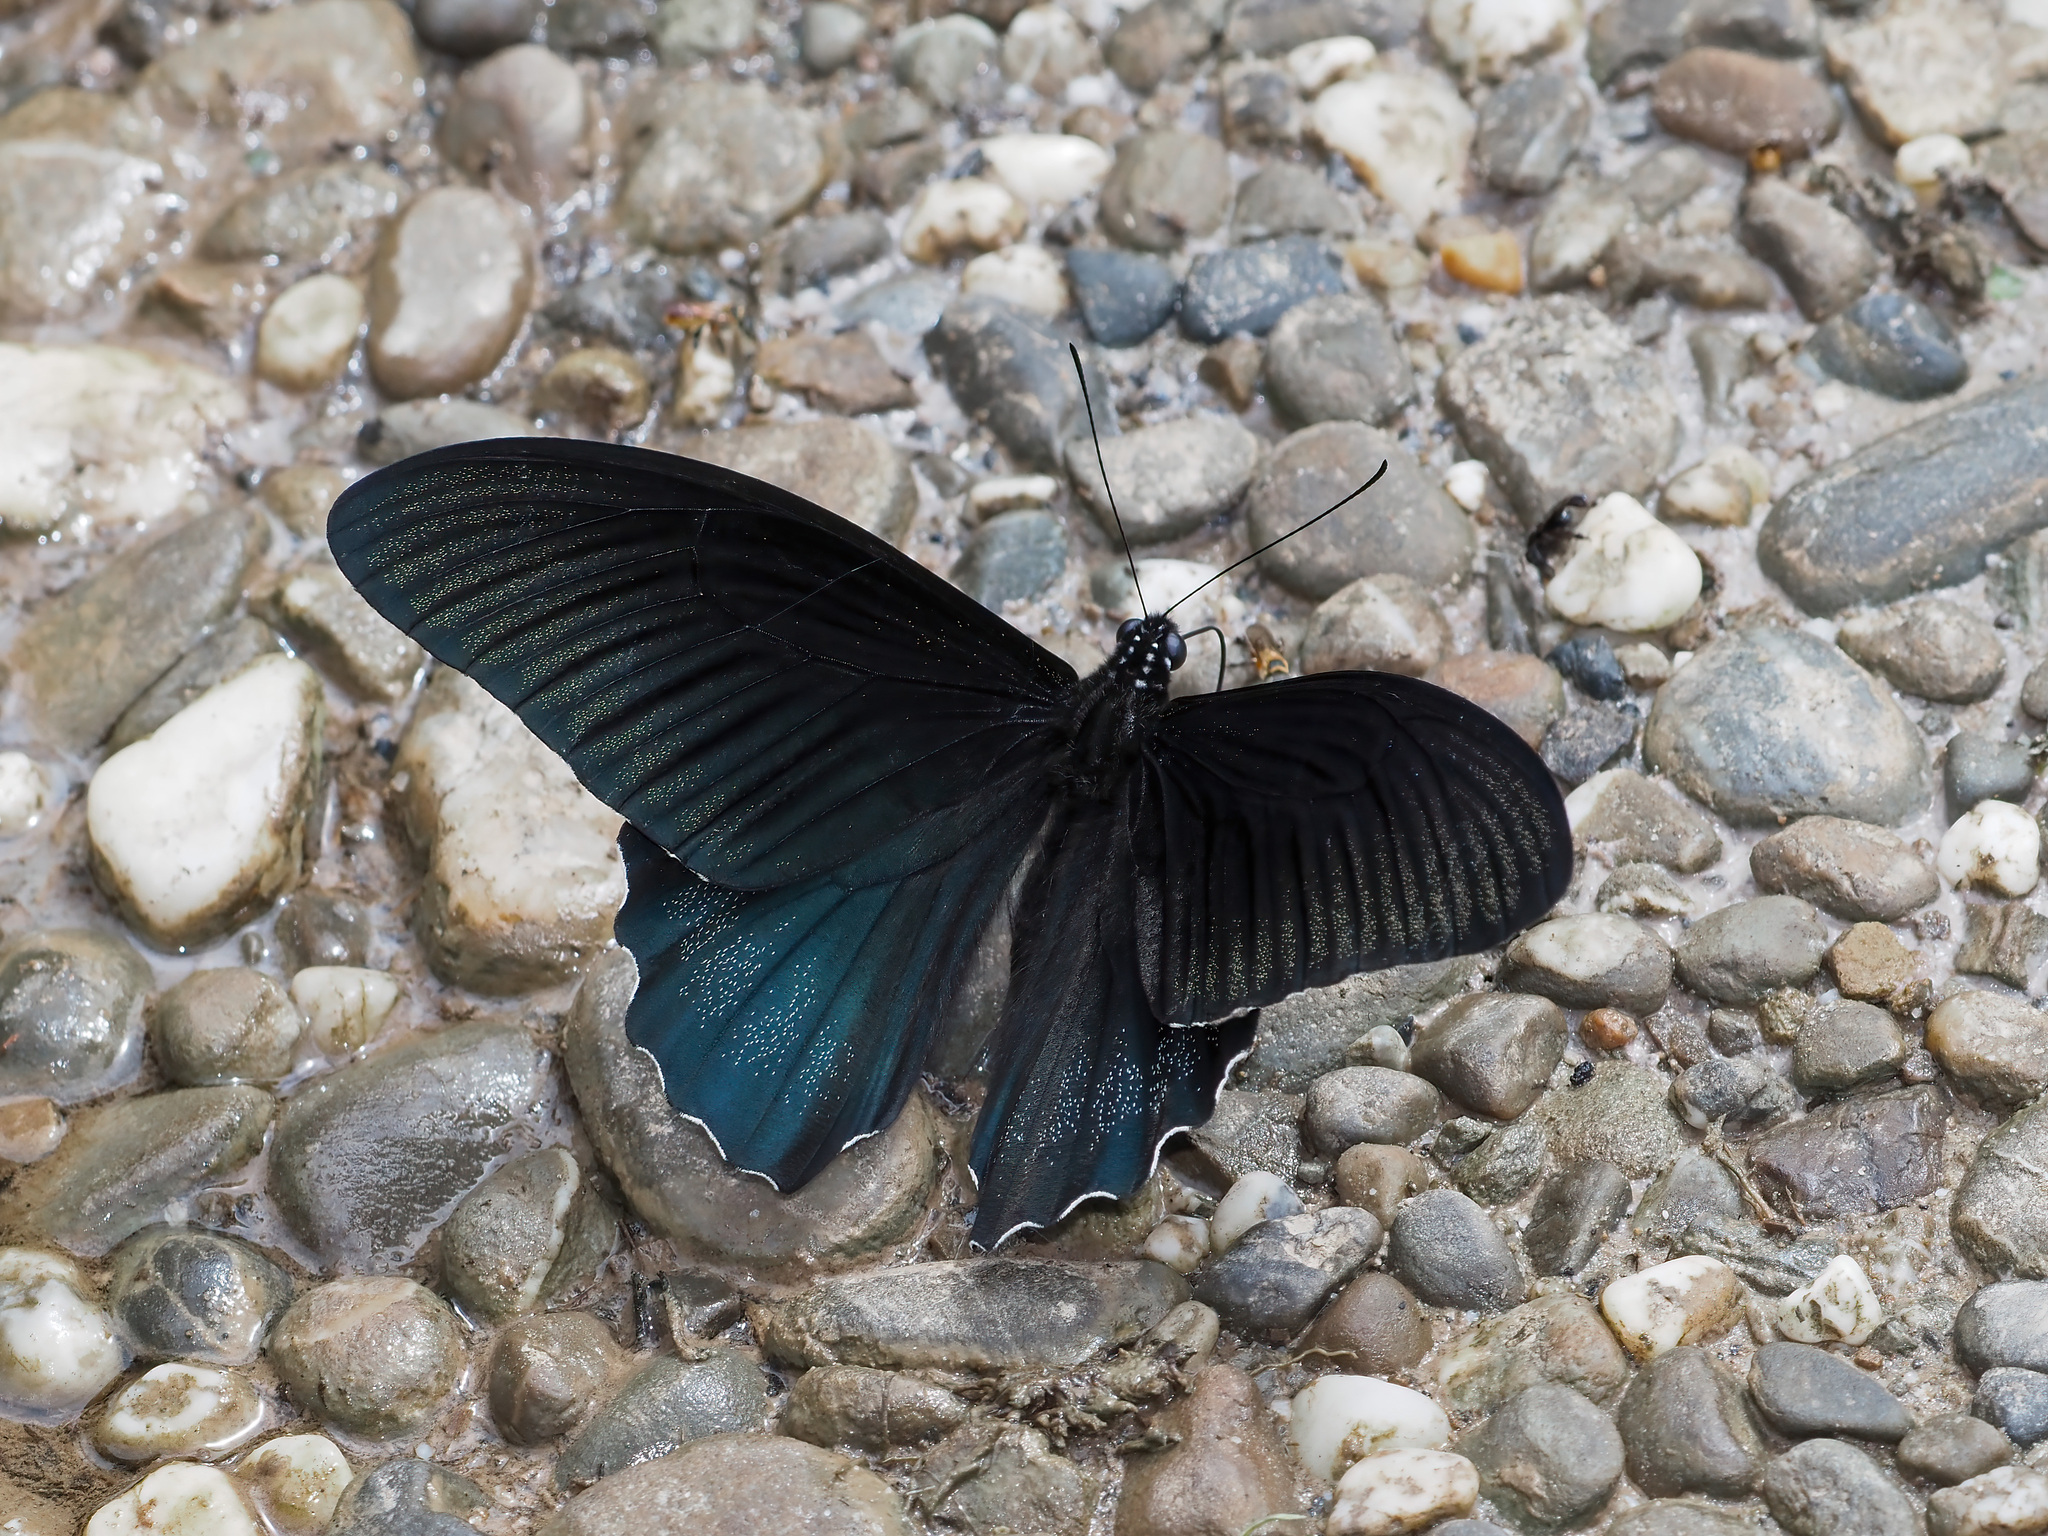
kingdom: Animalia
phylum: Arthropoda
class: Insecta
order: Lepidoptera
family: Papilionidae
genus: Papilio
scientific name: Papilio acheron
